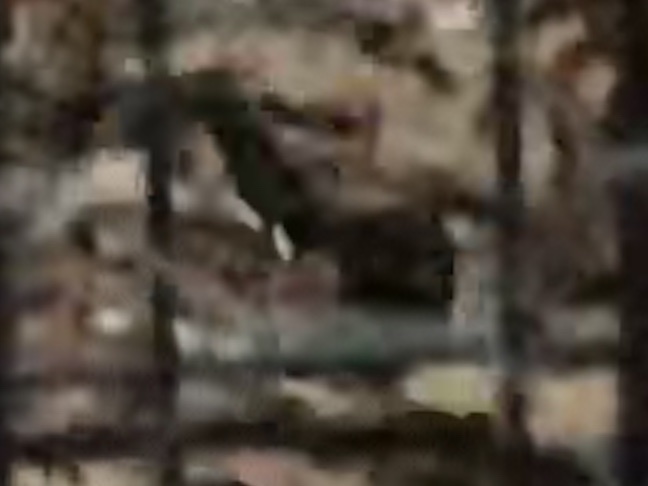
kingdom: Animalia
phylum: Chordata
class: Aves
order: Passeriformes
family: Passerellidae
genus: Pipilo
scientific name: Pipilo erythrophthalmus
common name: Eastern towhee
